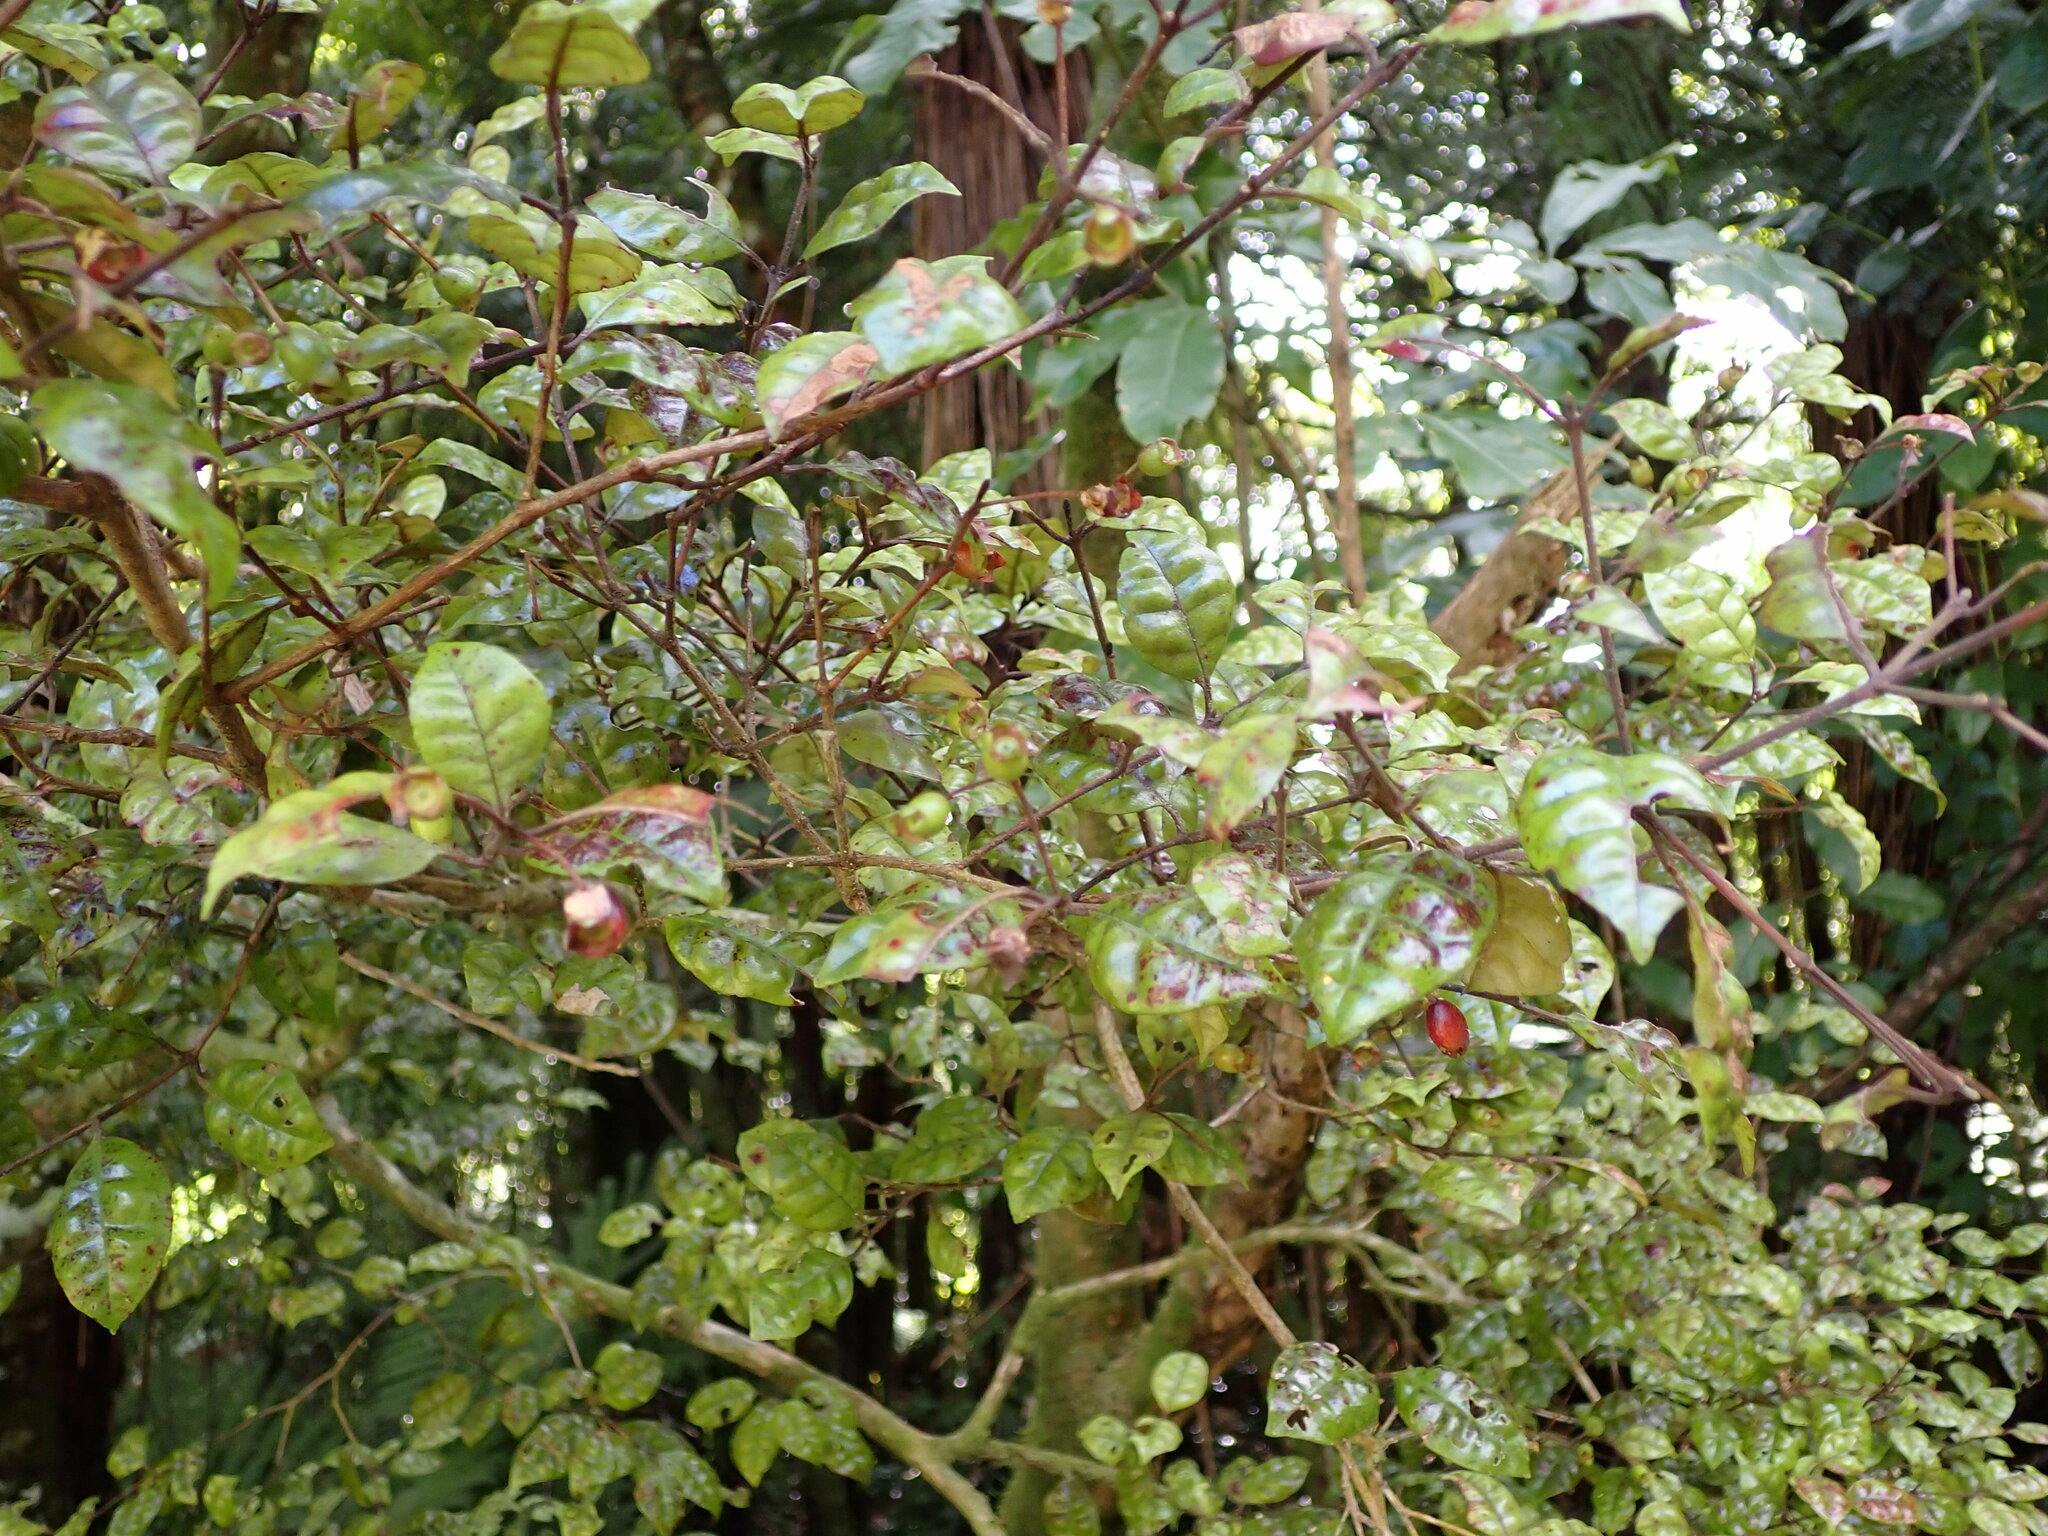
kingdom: Plantae
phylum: Tracheophyta
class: Magnoliopsida
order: Myrtales
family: Myrtaceae
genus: Lophomyrtus
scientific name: Lophomyrtus bullata
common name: Rama rama
